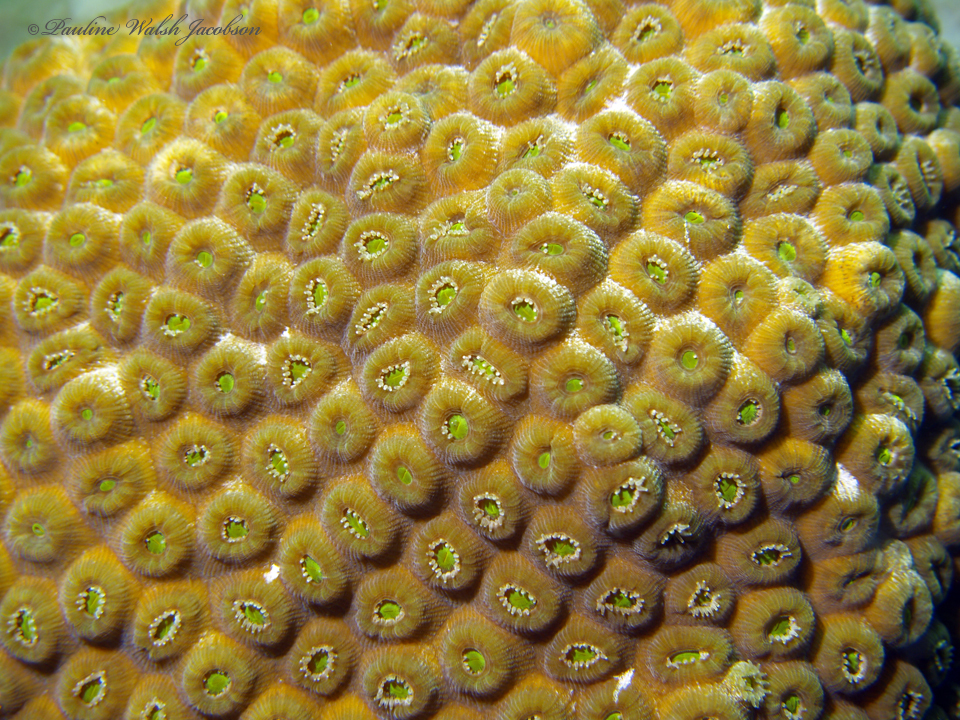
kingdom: Animalia
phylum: Cnidaria
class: Anthozoa
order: Scleractinia
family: Montastraeidae
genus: Montastraea
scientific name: Montastraea cavernosa
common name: Great star coral
